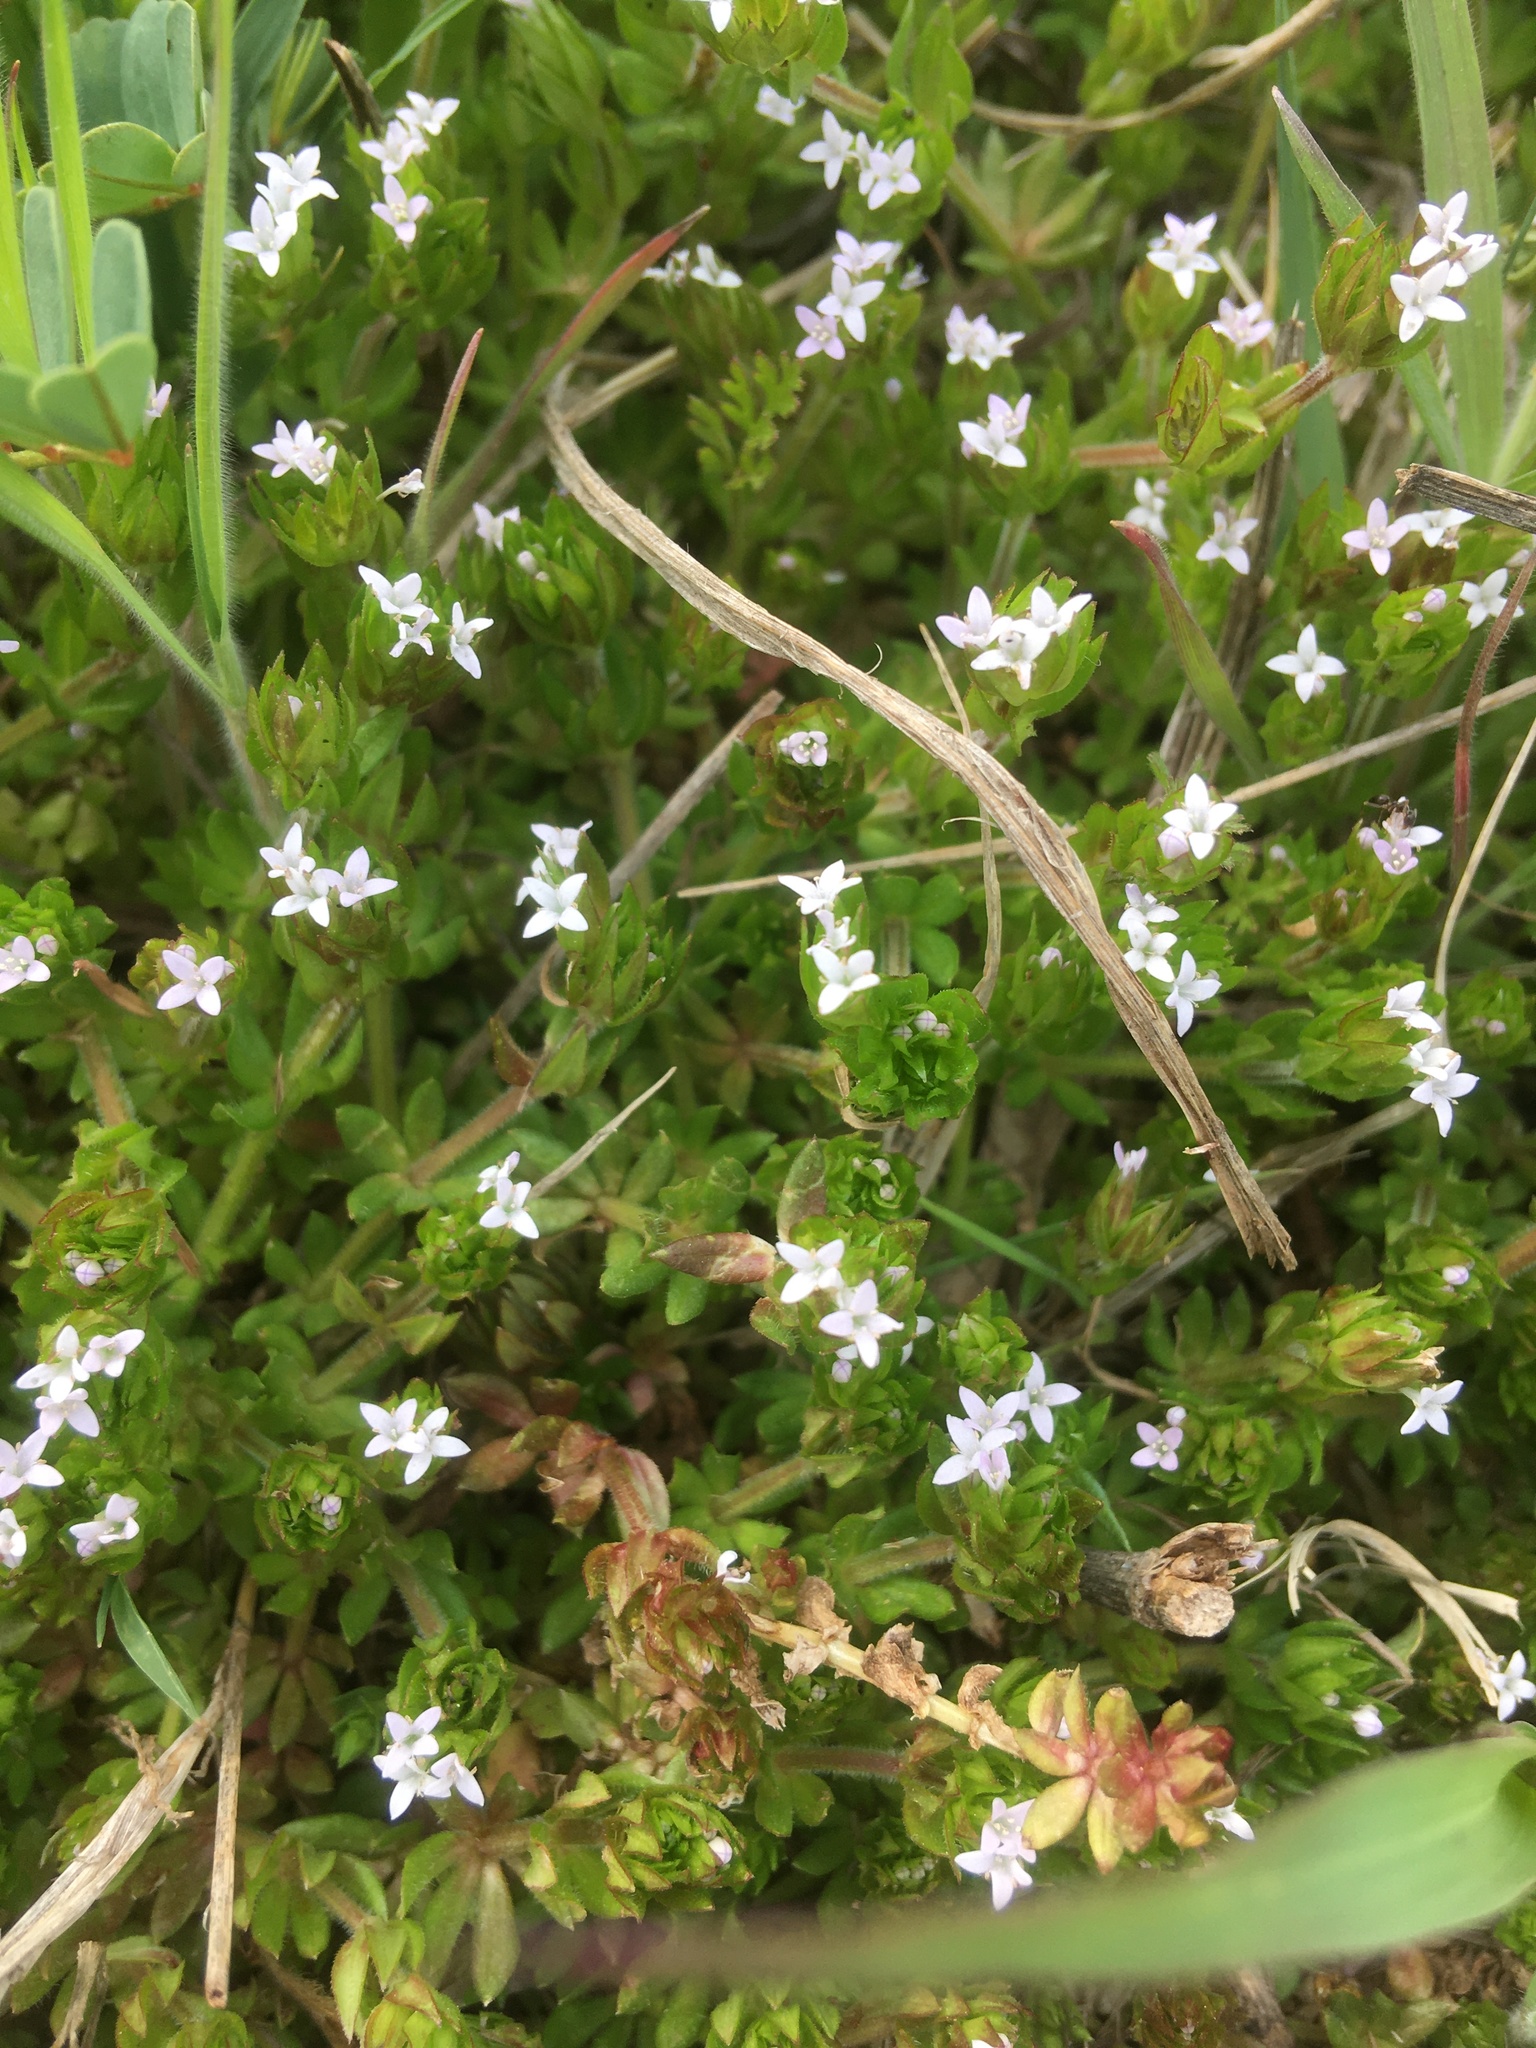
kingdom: Plantae
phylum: Tracheophyta
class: Magnoliopsida
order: Gentianales
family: Rubiaceae
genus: Sherardia
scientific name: Sherardia arvensis
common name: Field madder
